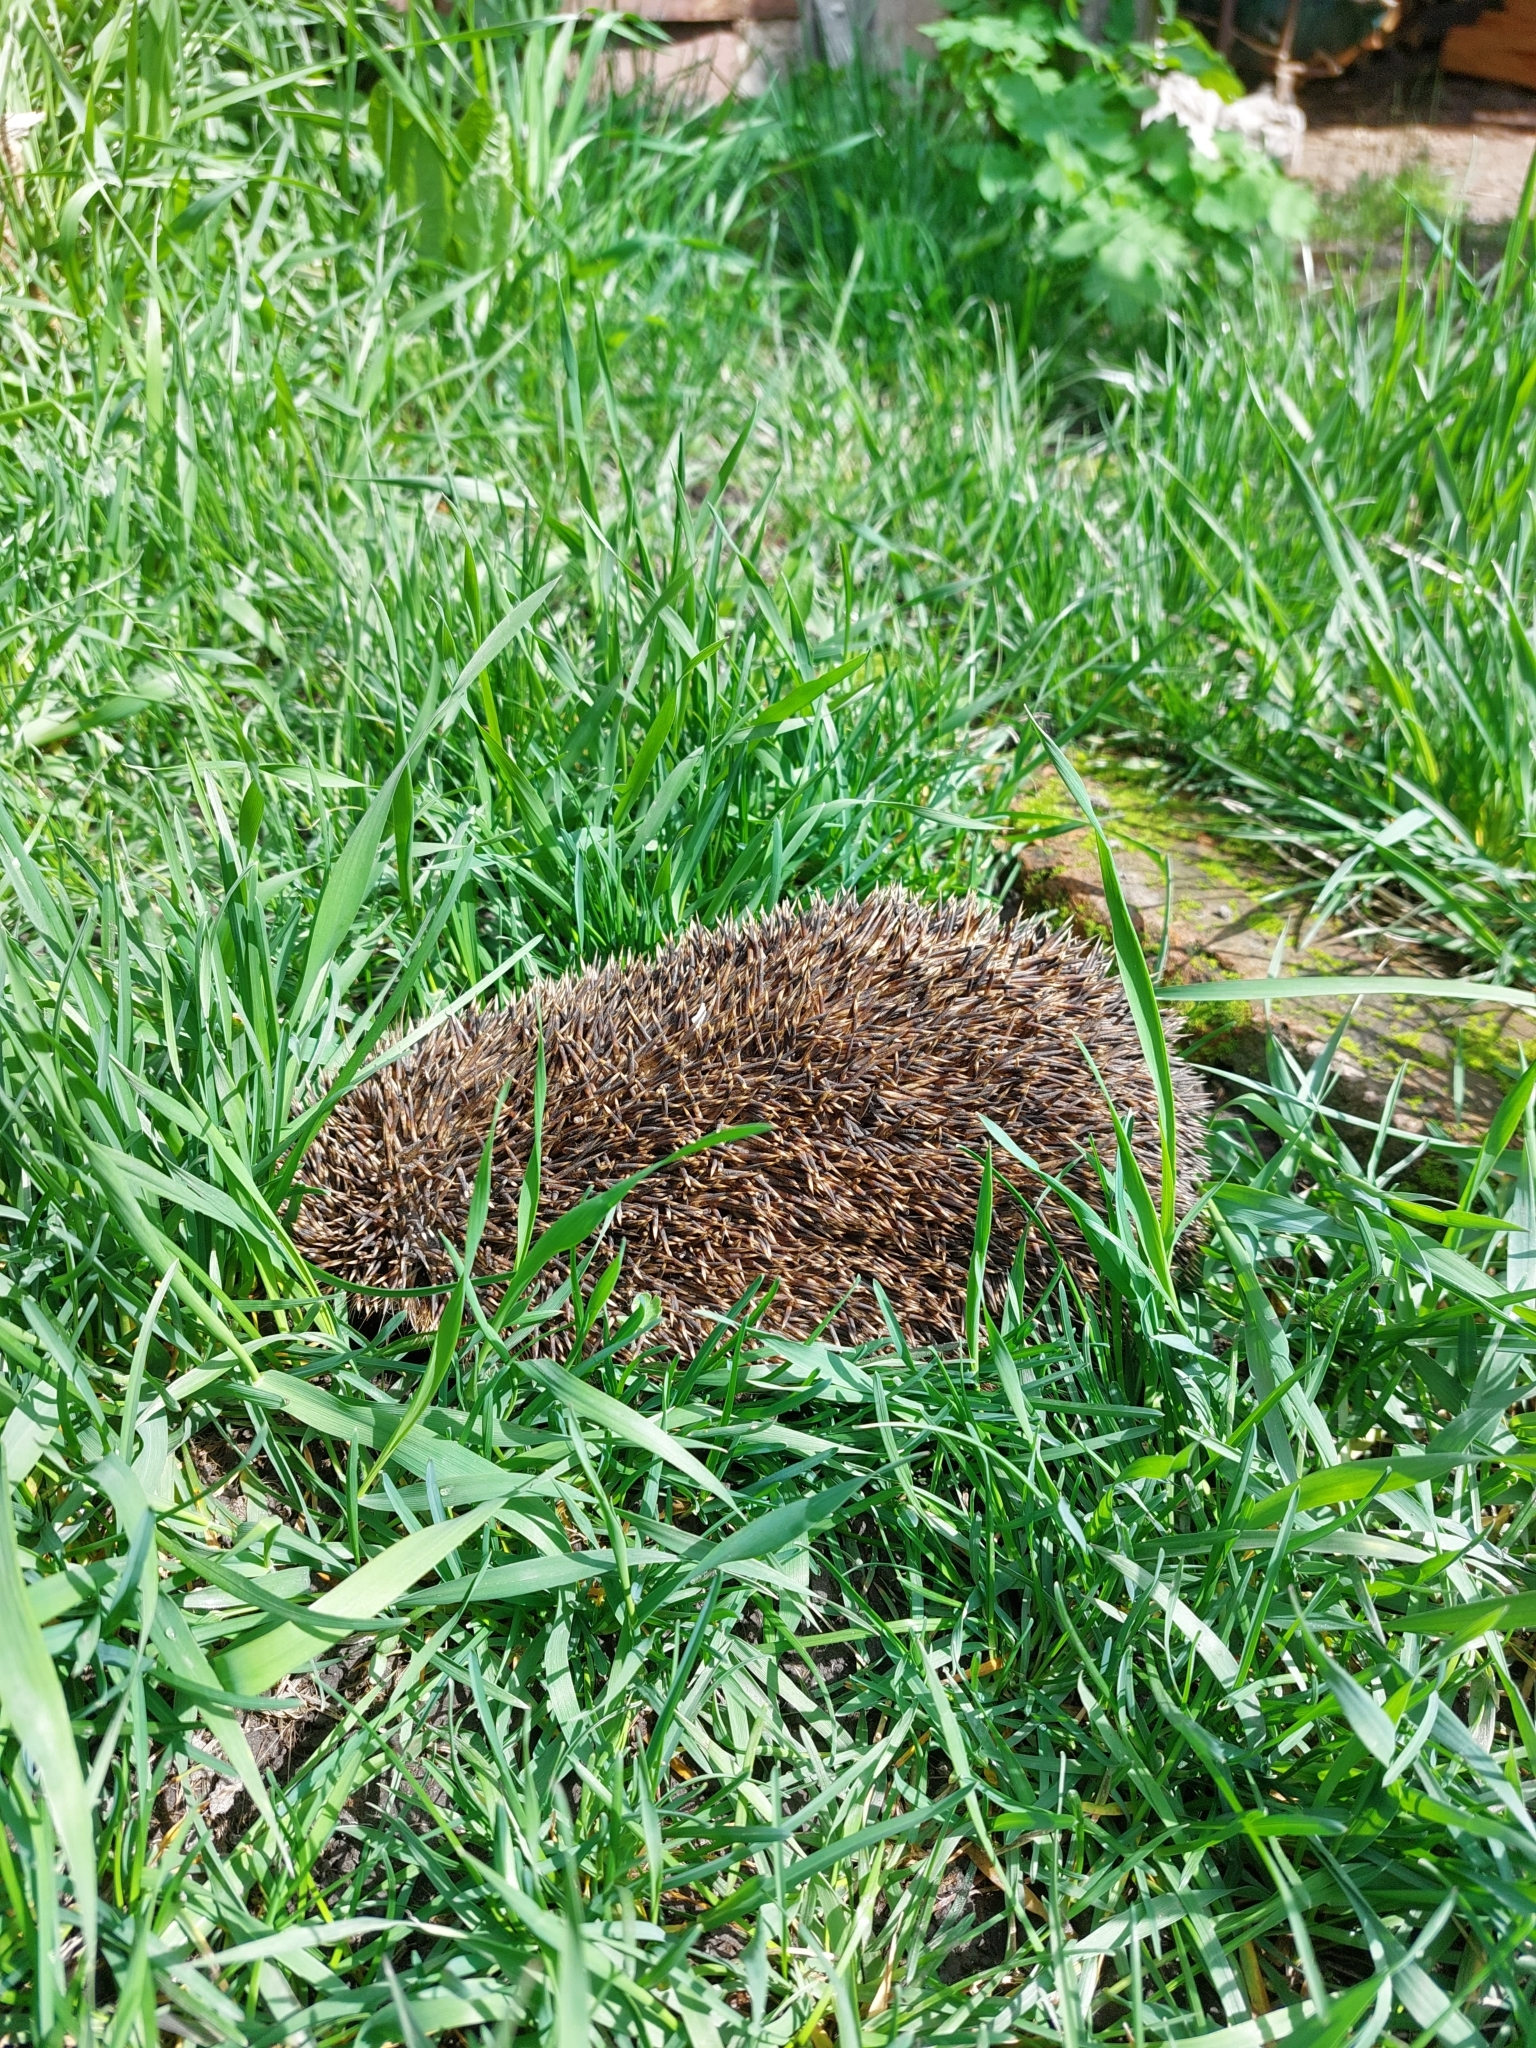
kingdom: Animalia
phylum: Chordata
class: Mammalia
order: Erinaceomorpha
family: Erinaceidae
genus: Erinaceus
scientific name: Erinaceus roumanicus
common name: Northern white-breasted hedgehog
